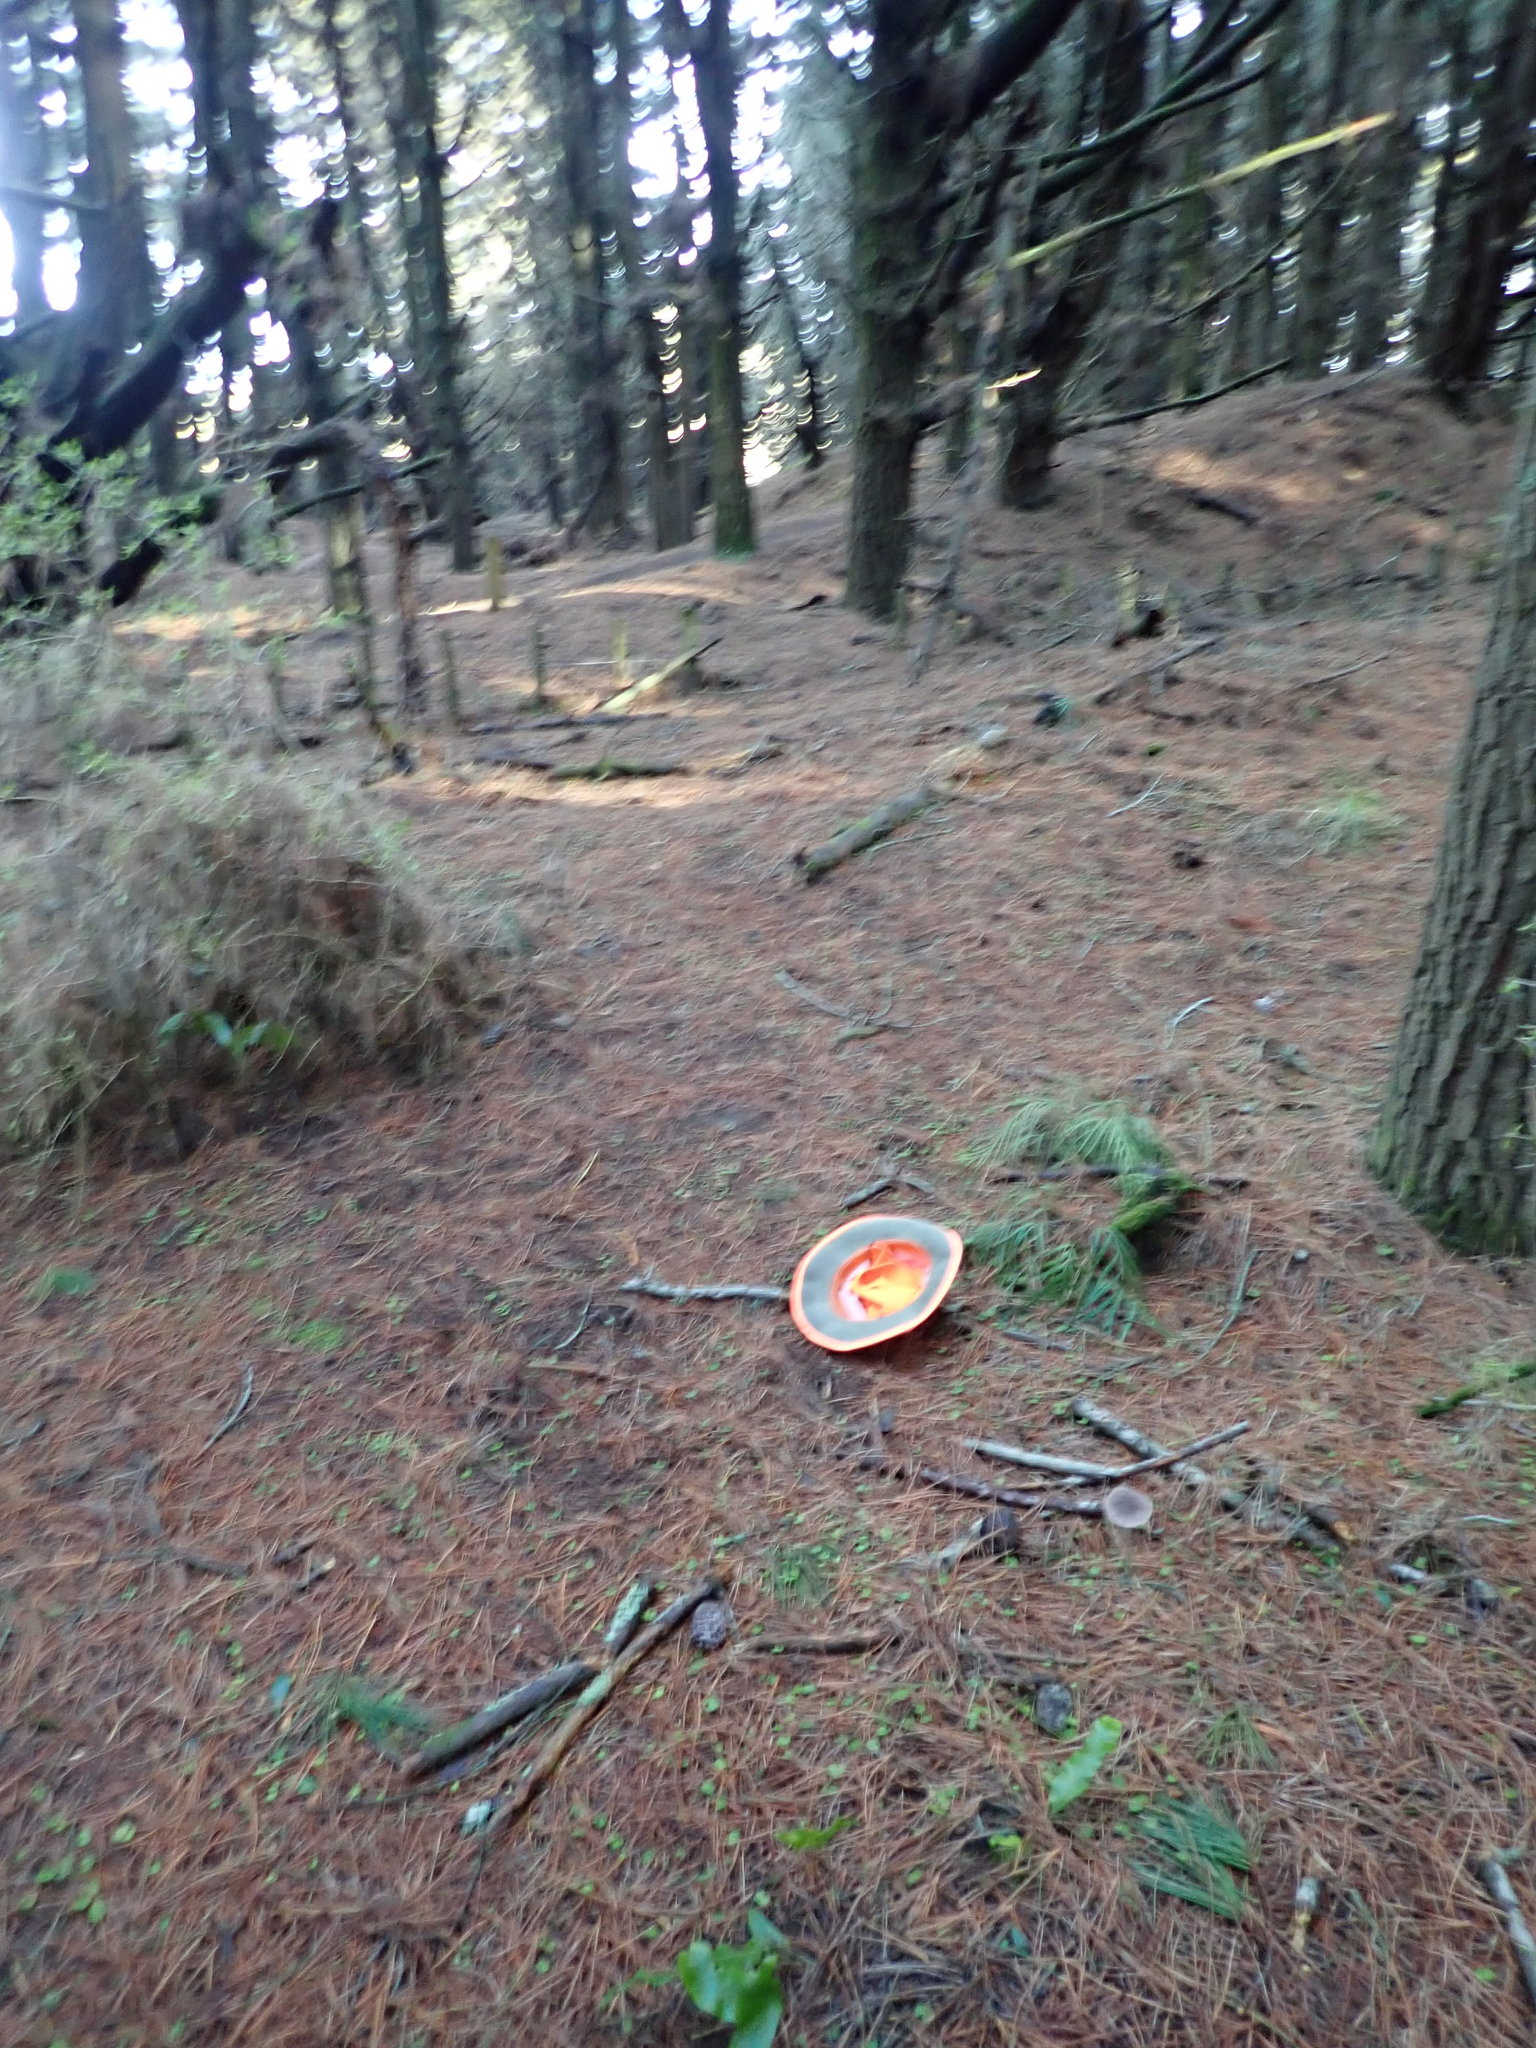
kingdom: Plantae
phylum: Tracheophyta
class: Polypodiopsida
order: Polypodiales
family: Aspleniaceae
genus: Asplenium
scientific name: Asplenium flaccidum
